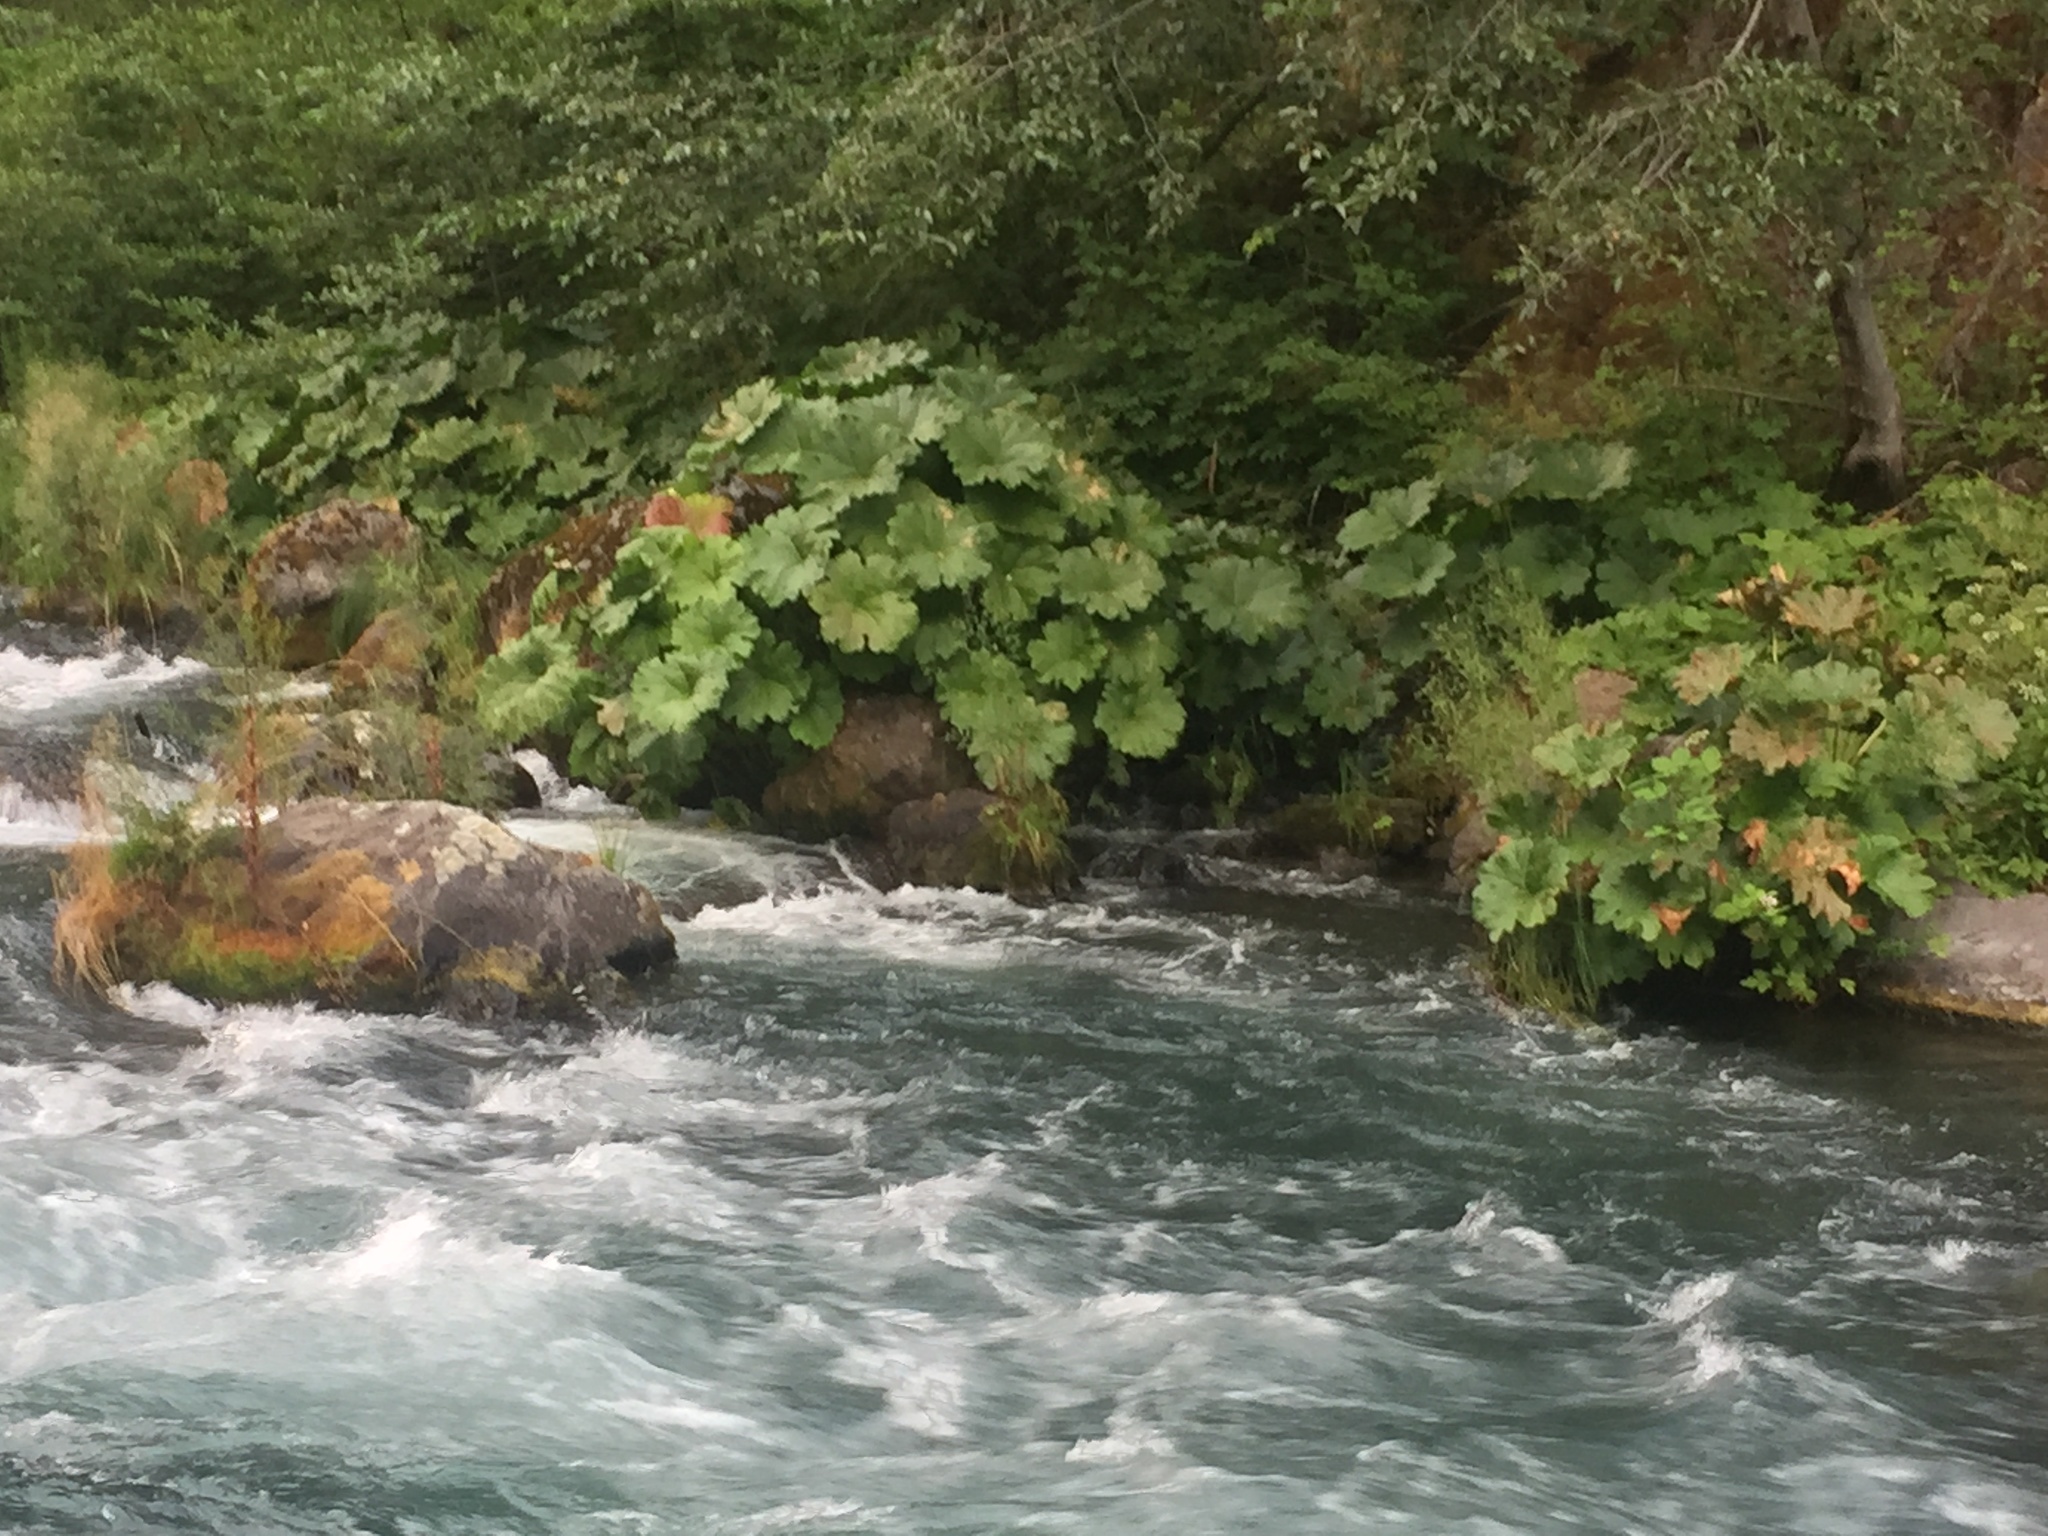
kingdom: Plantae
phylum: Tracheophyta
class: Magnoliopsida
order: Saxifragales
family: Saxifragaceae
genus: Darmera
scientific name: Darmera peltata
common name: Indian-rhubarb
